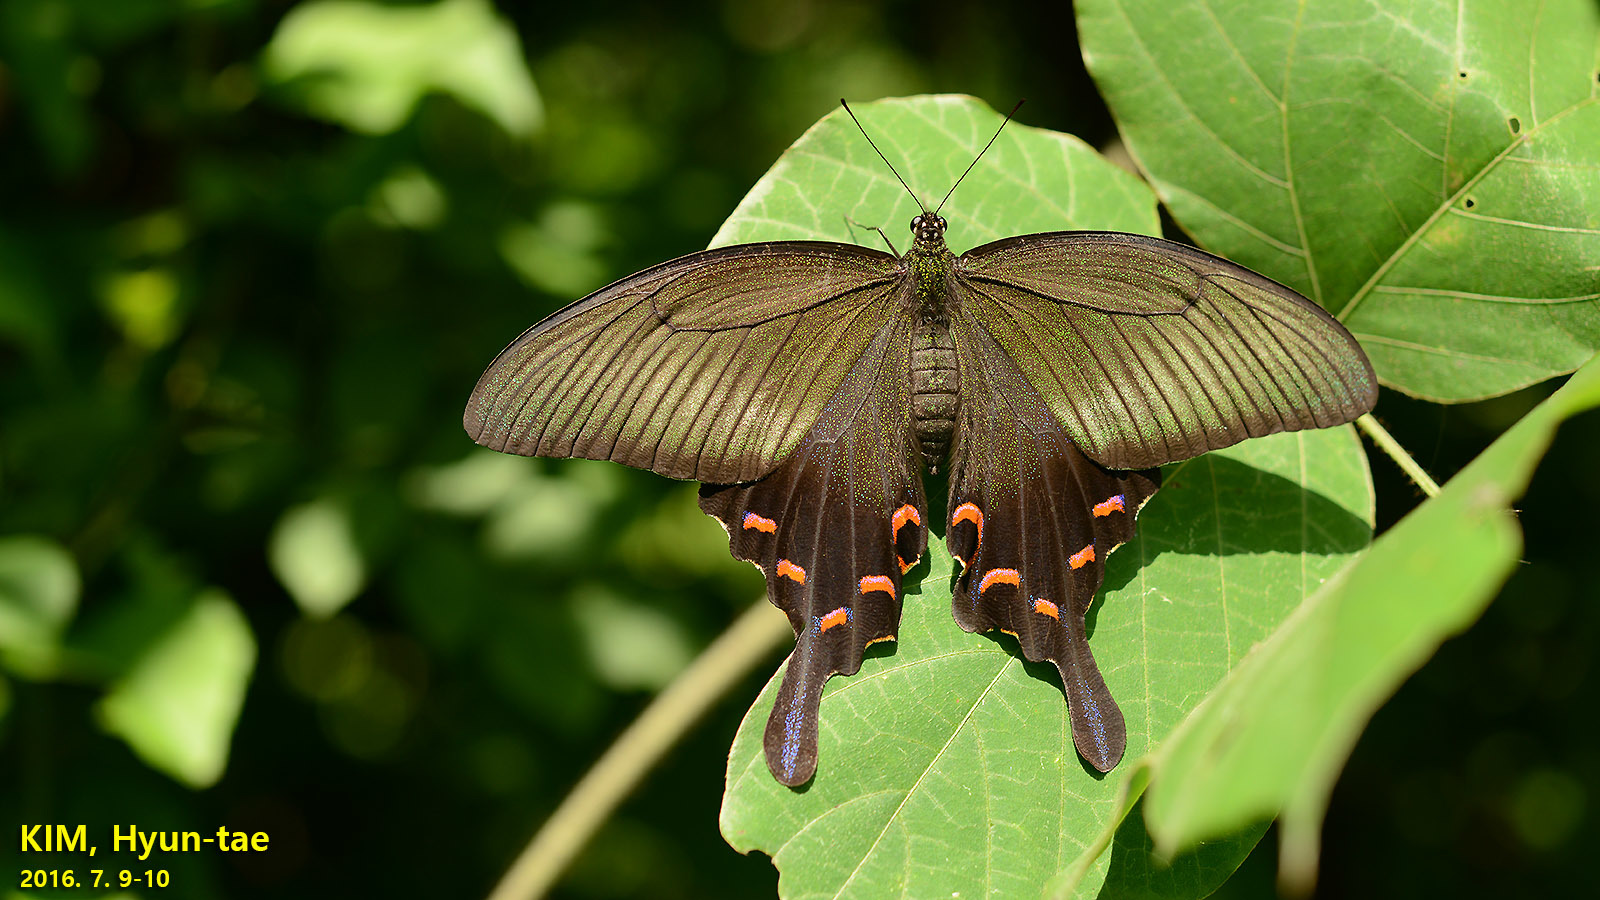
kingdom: Animalia
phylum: Arthropoda
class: Insecta
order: Lepidoptera
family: Papilionidae
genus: Papilio
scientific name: Papilio dehaanii
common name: Japanese peacock swallowtail
